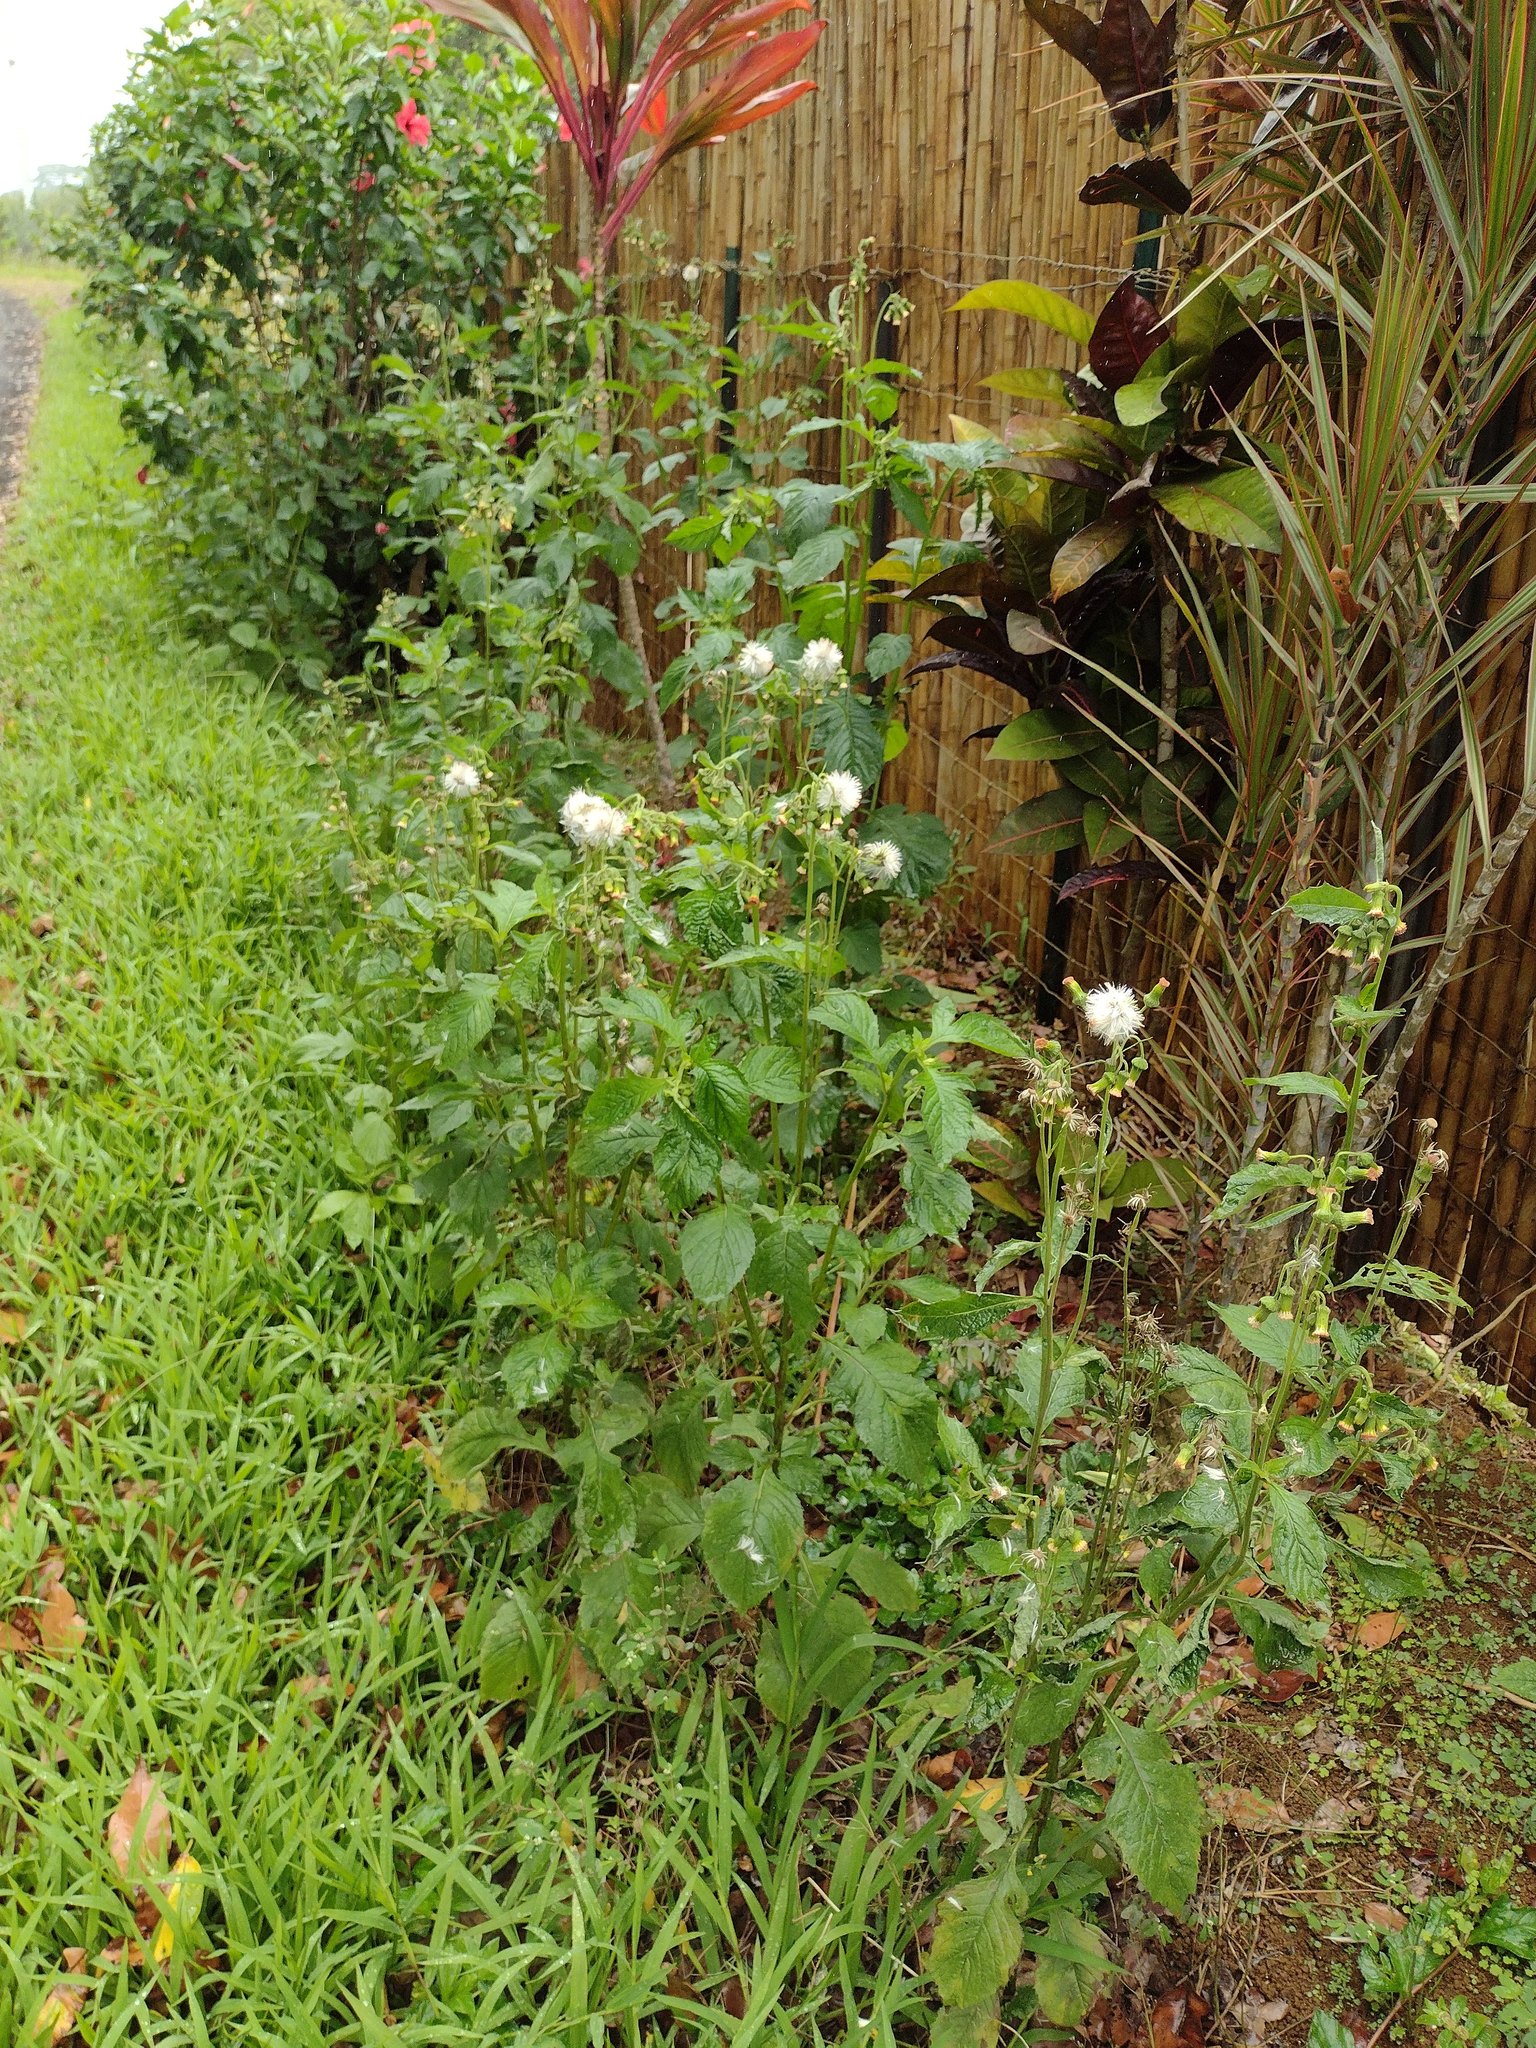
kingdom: Plantae
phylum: Tracheophyta
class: Magnoliopsida
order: Asterales
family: Asteraceae
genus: Crassocephalum
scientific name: Crassocephalum crepidioides
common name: Redflower ragleaf
